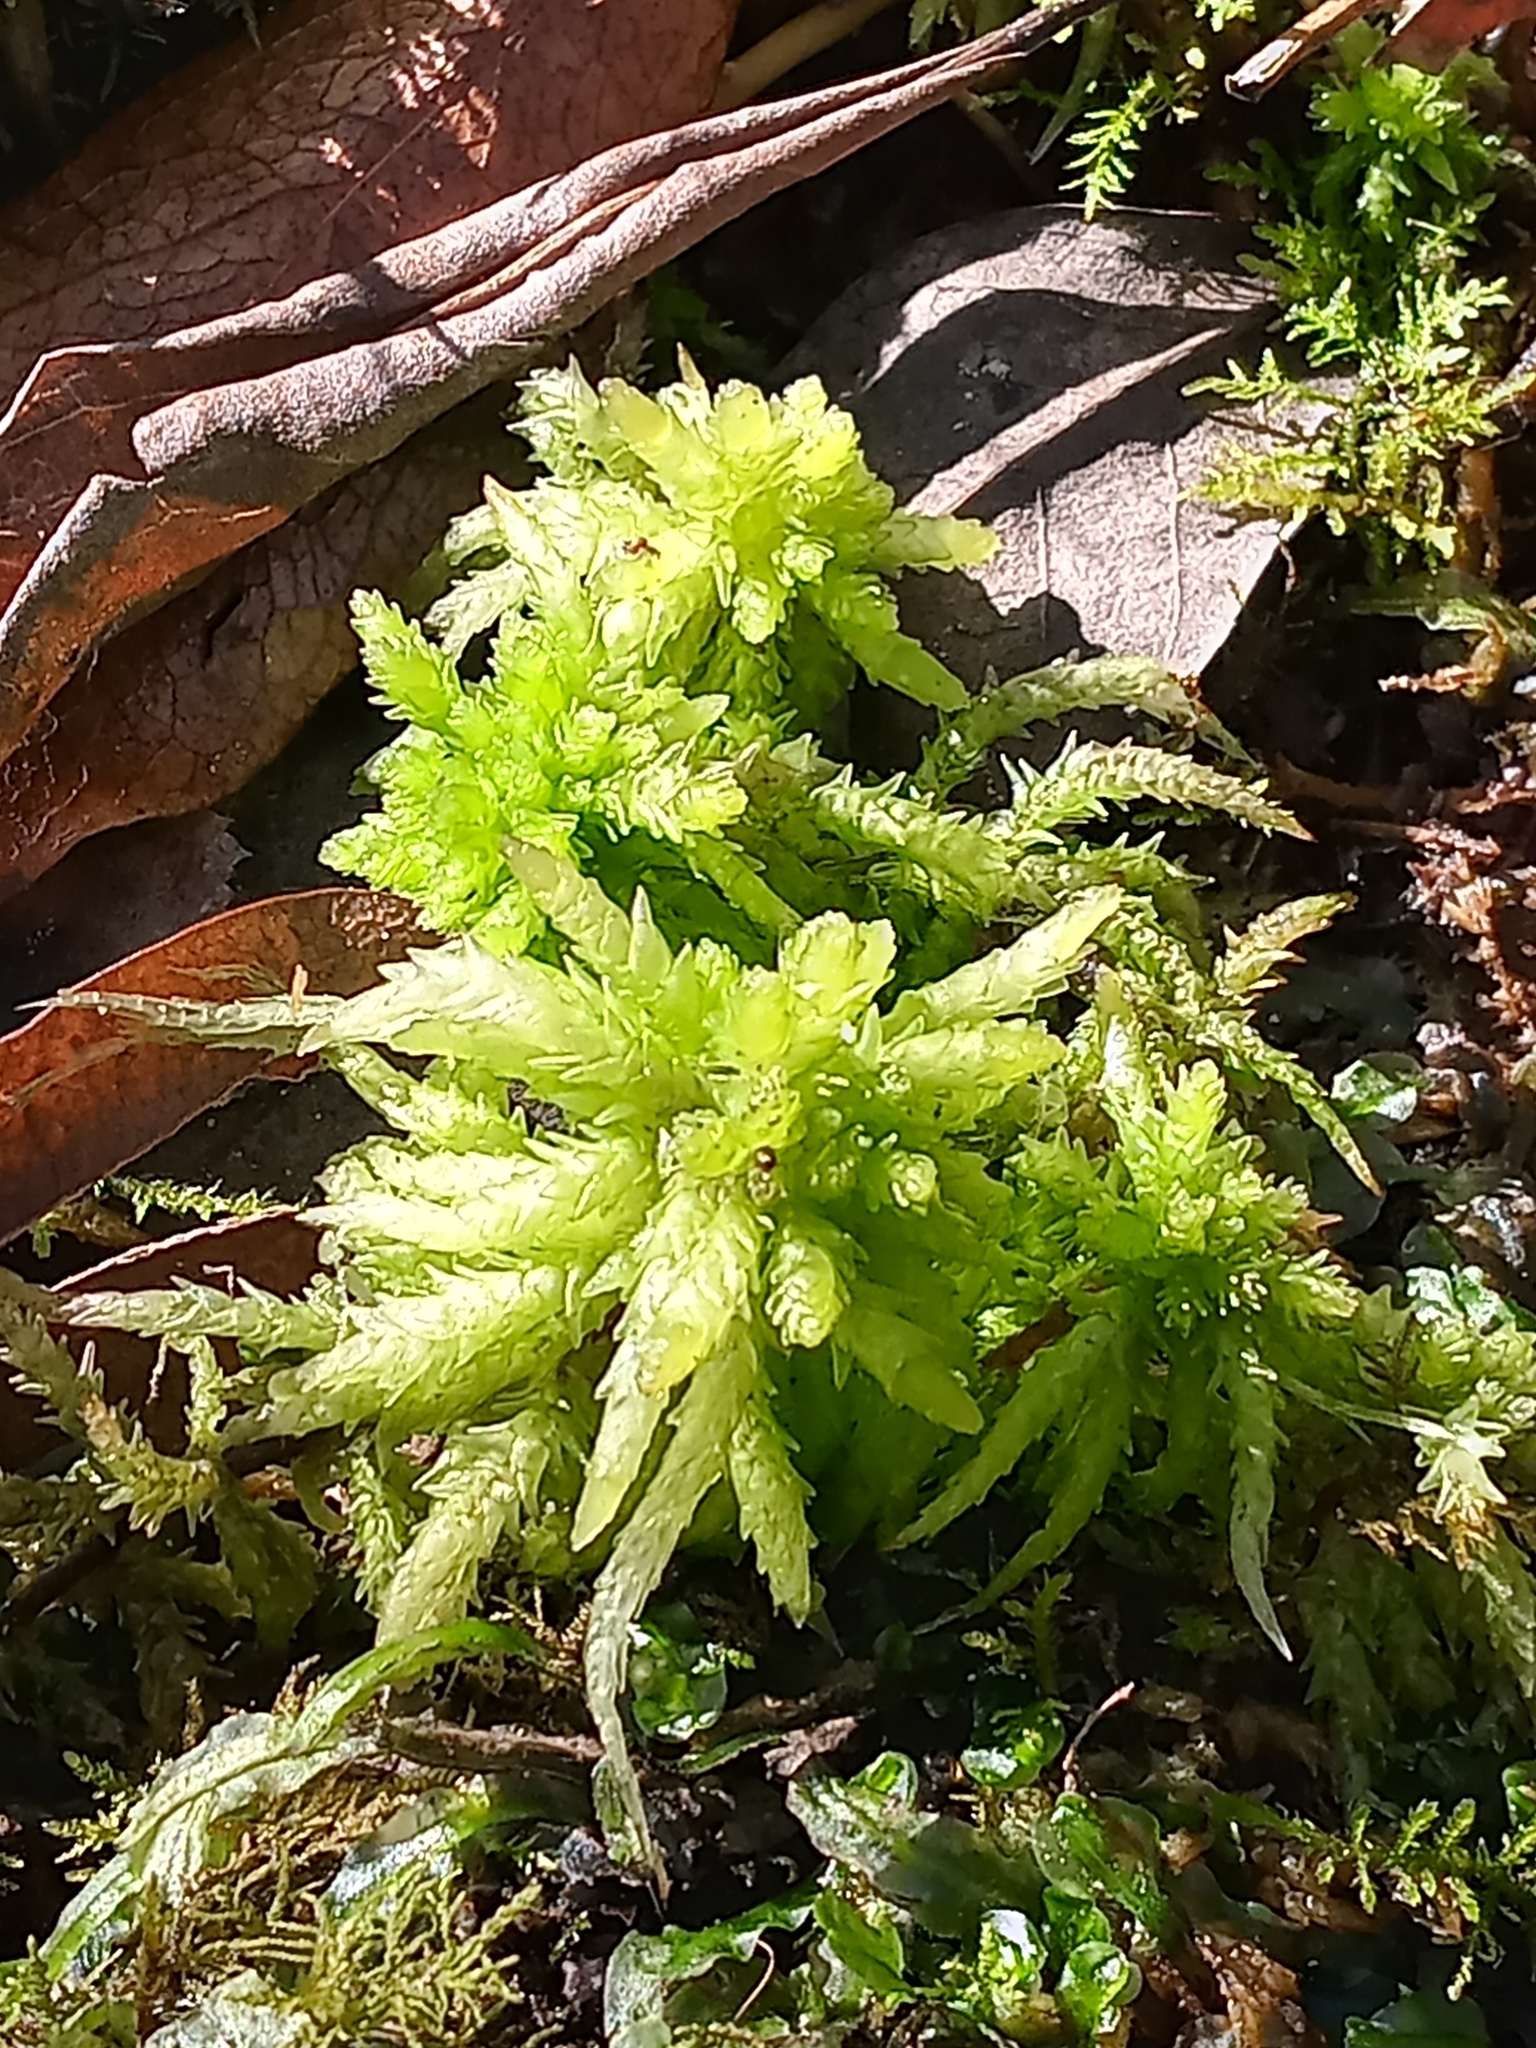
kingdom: Plantae
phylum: Bryophyta
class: Sphagnopsida
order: Sphagnales
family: Sphagnaceae
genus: Sphagnum
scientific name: Sphagnum palustre
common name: Blunt-leaved bog-moss
